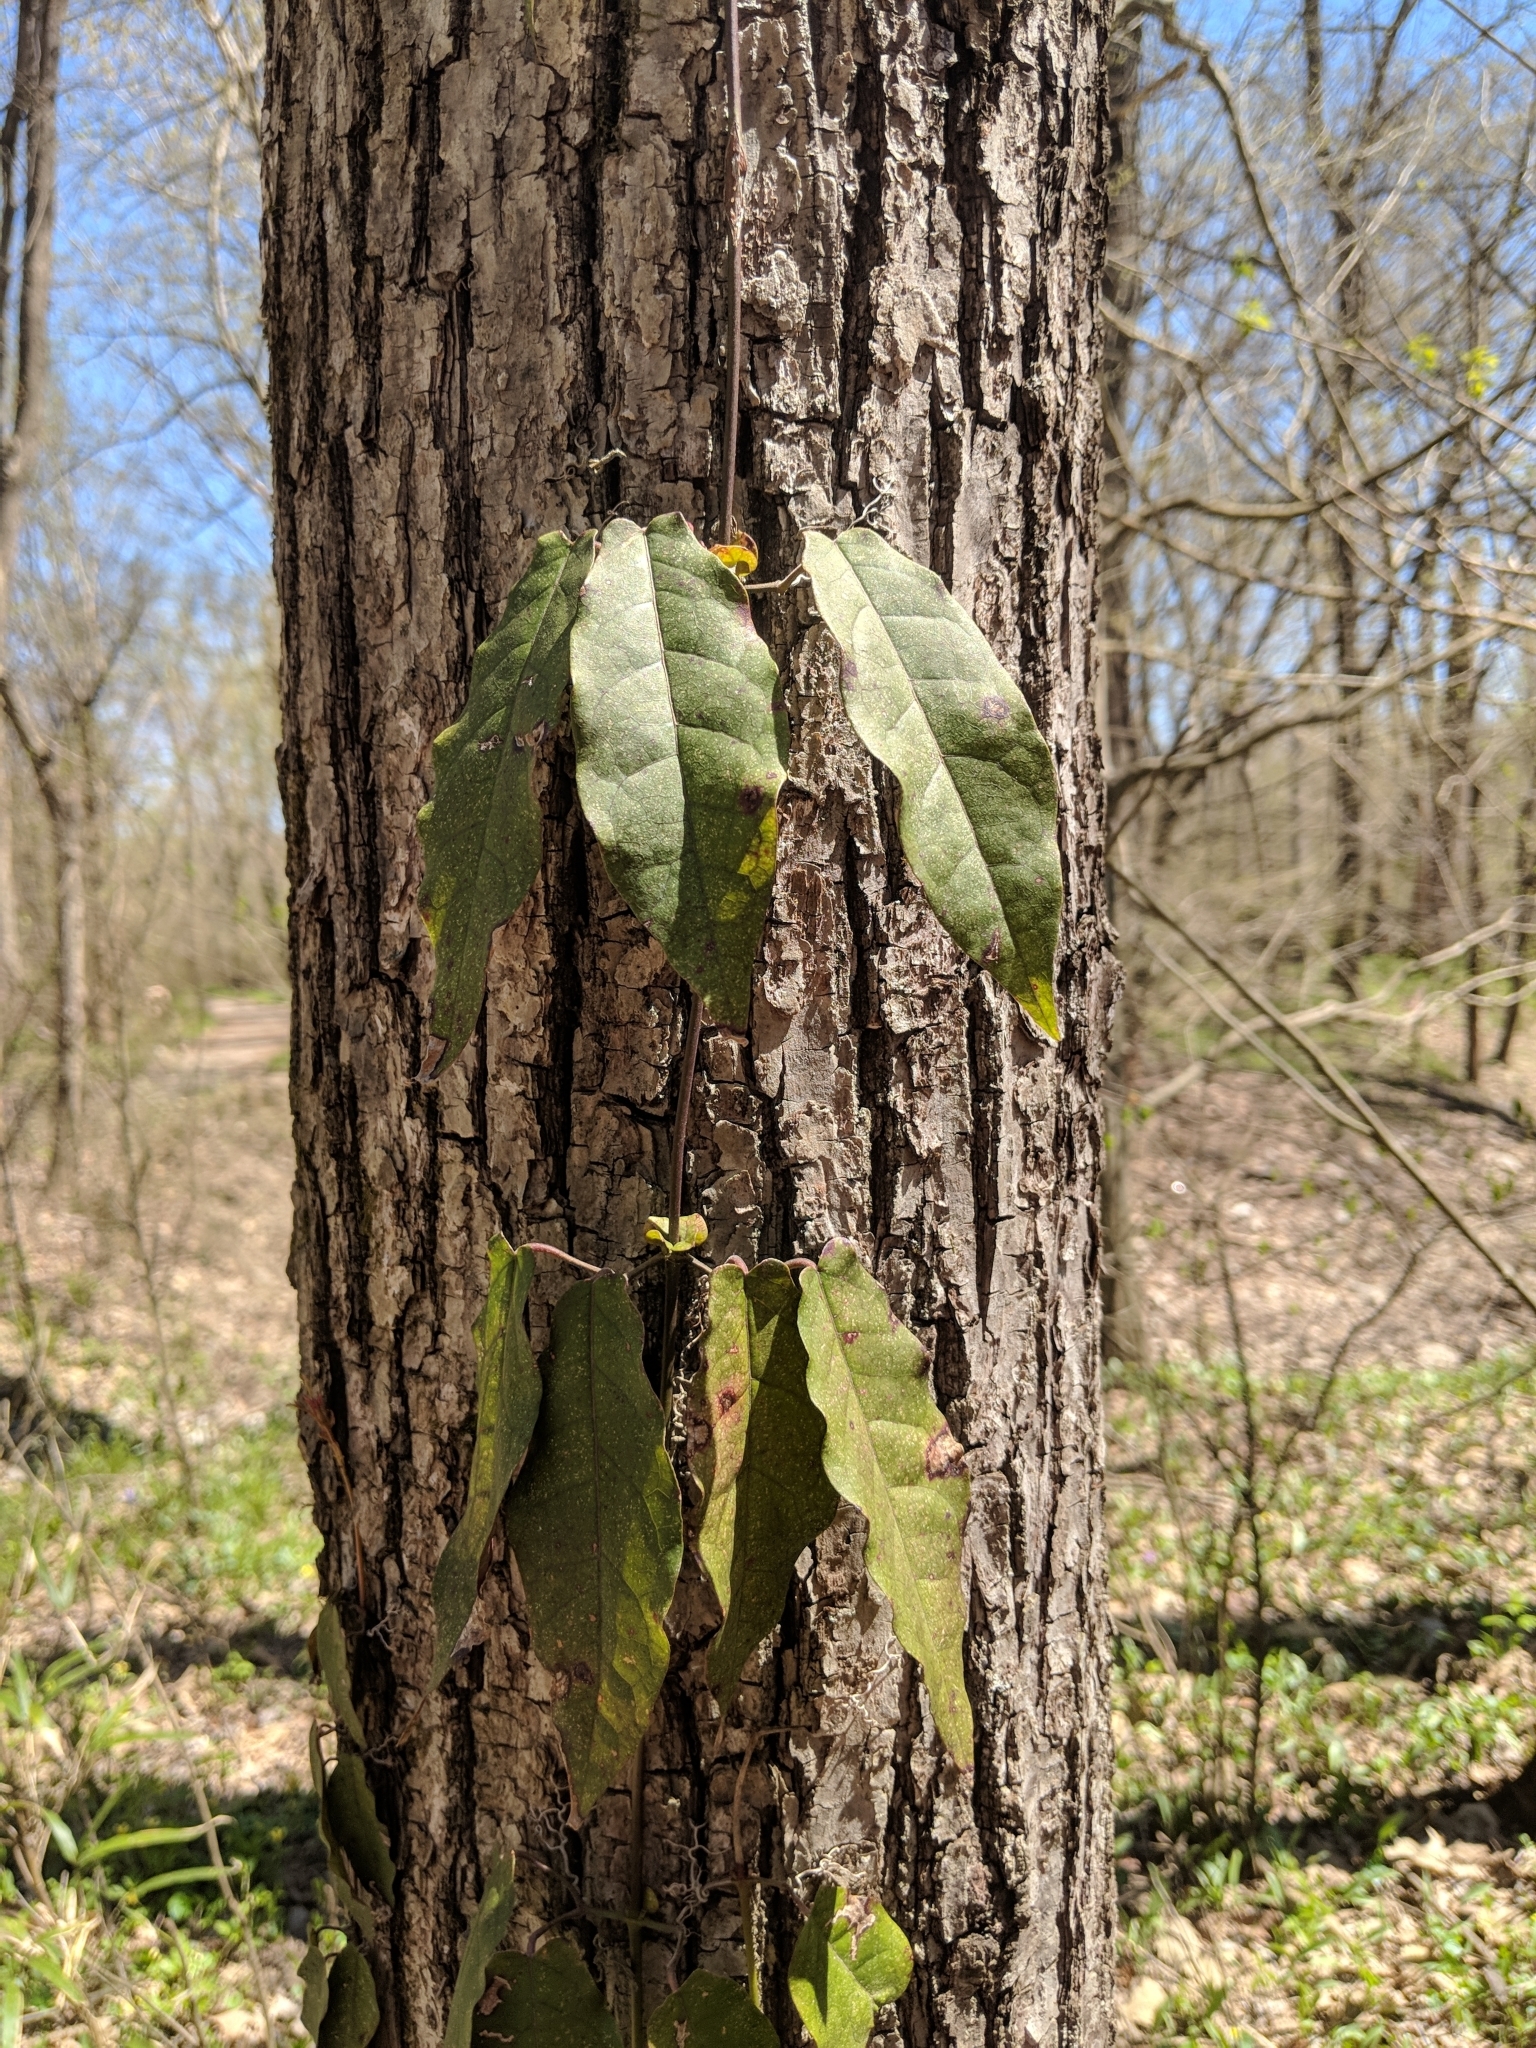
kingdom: Plantae
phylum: Tracheophyta
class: Magnoliopsida
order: Lamiales
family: Bignoniaceae
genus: Bignonia
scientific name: Bignonia capreolata
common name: Crossvine
